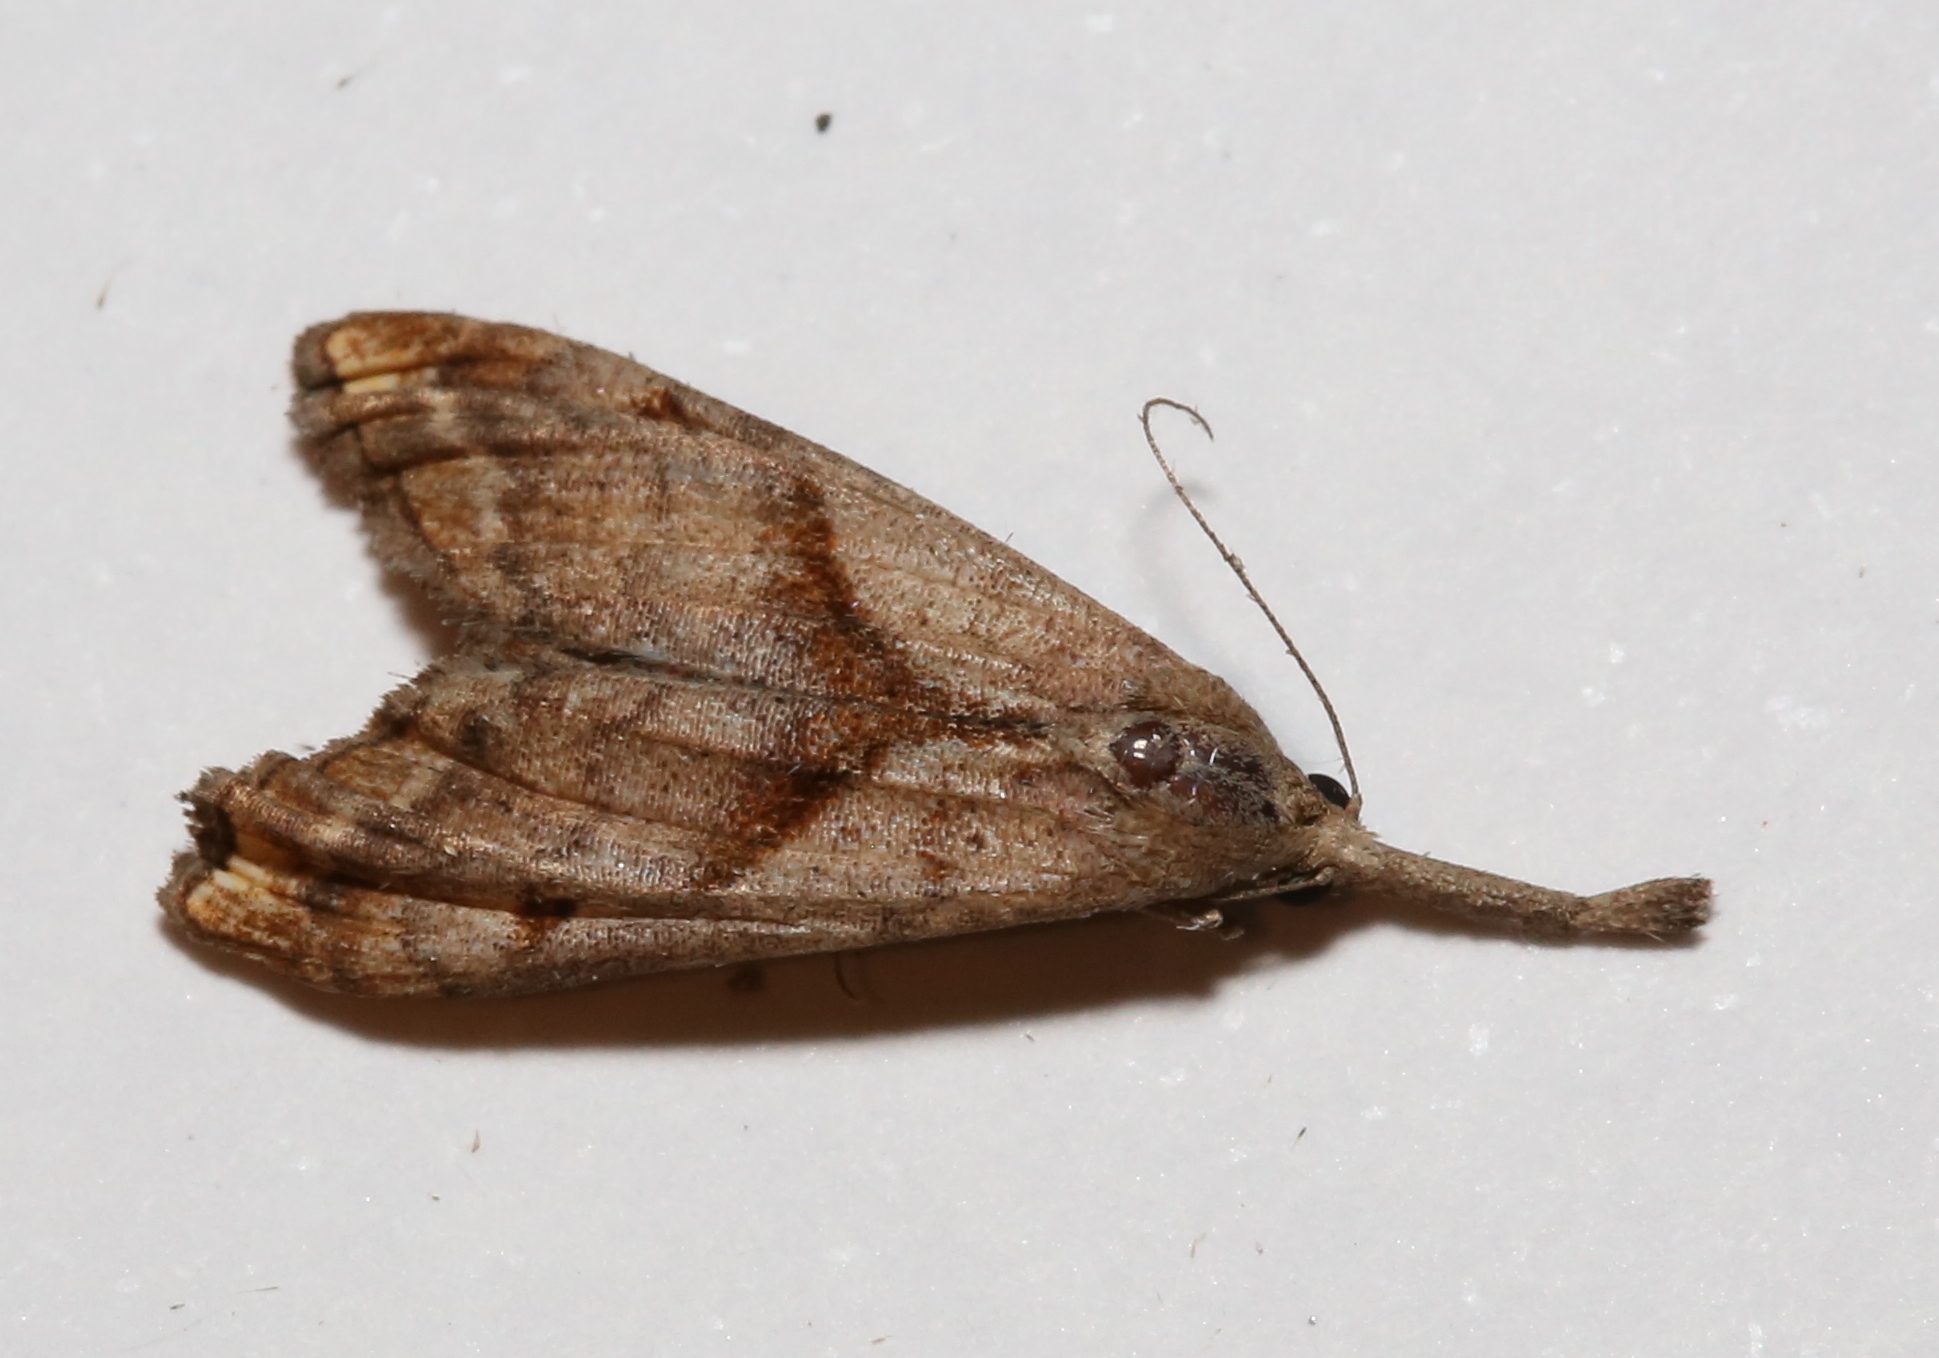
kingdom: Animalia
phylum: Arthropoda
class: Insecta
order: Lepidoptera
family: Erebidae
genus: Palthis
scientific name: Palthis angulalis
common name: Dark-spotted palthis moth
